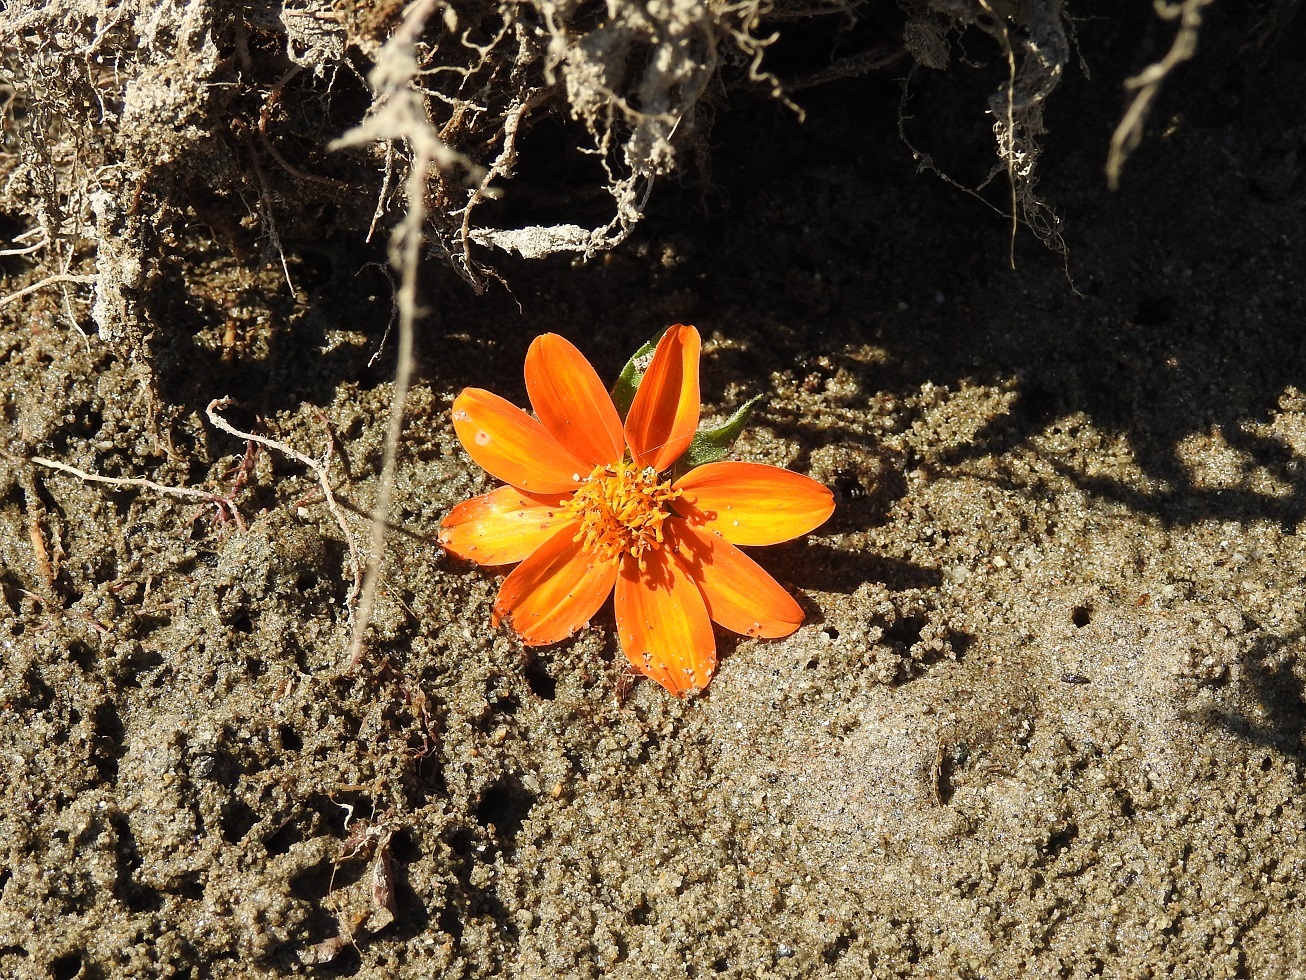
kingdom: Plantae
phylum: Tracheophyta
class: Magnoliopsida
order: Asterales
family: Asteraceae
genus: Hidalgoa
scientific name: Hidalgoa ternata
